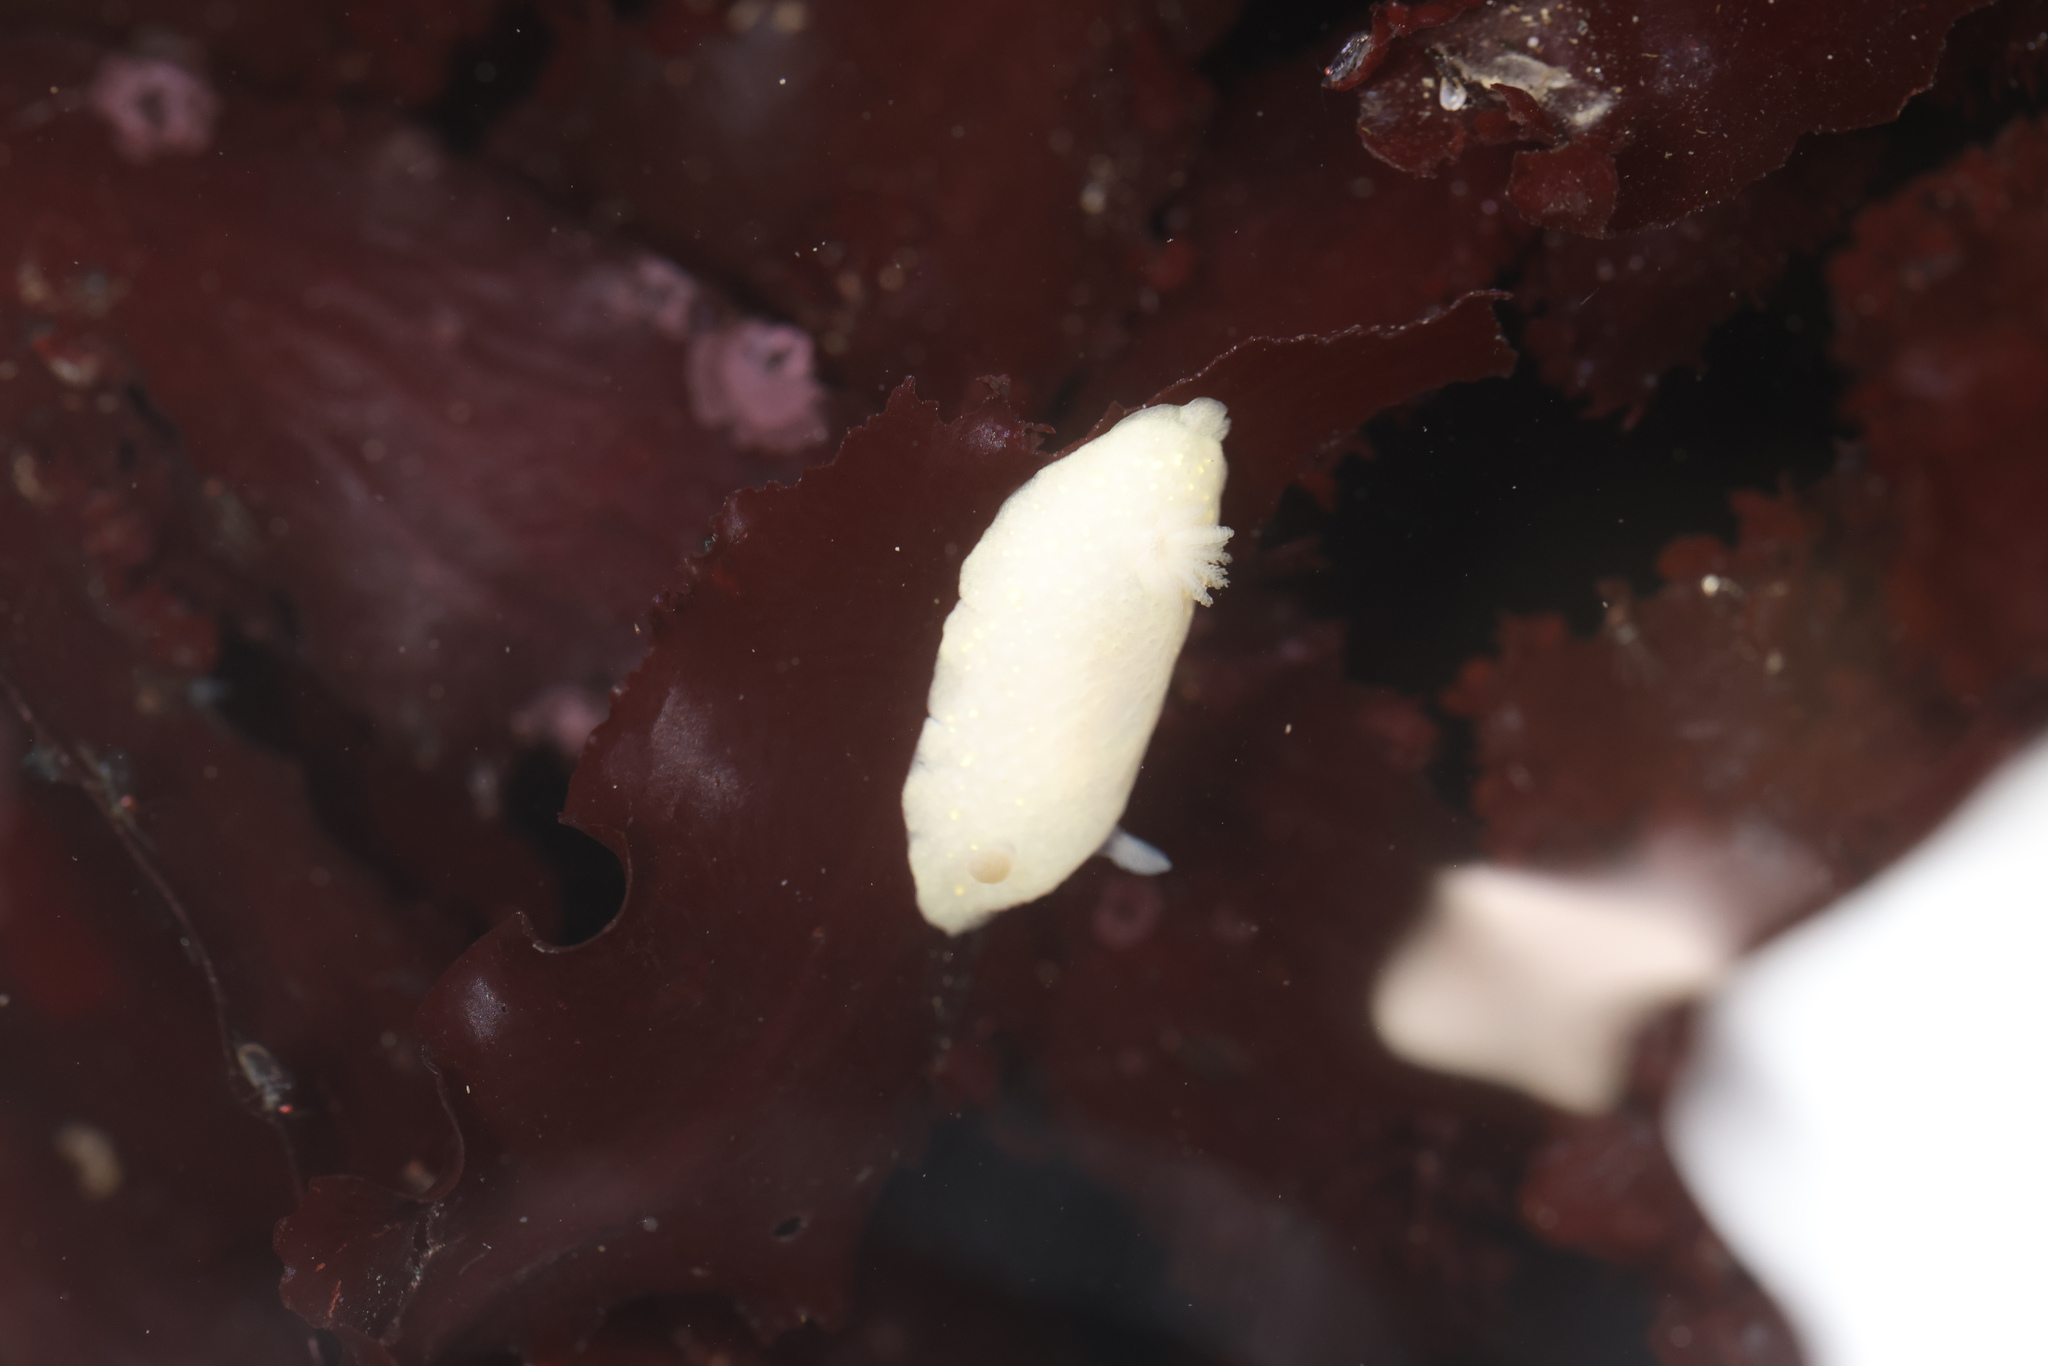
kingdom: Animalia
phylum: Mollusca
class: Gastropoda
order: Nudibranchia
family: Cadlinidae
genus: Cadlina
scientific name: Cadlina modesta
